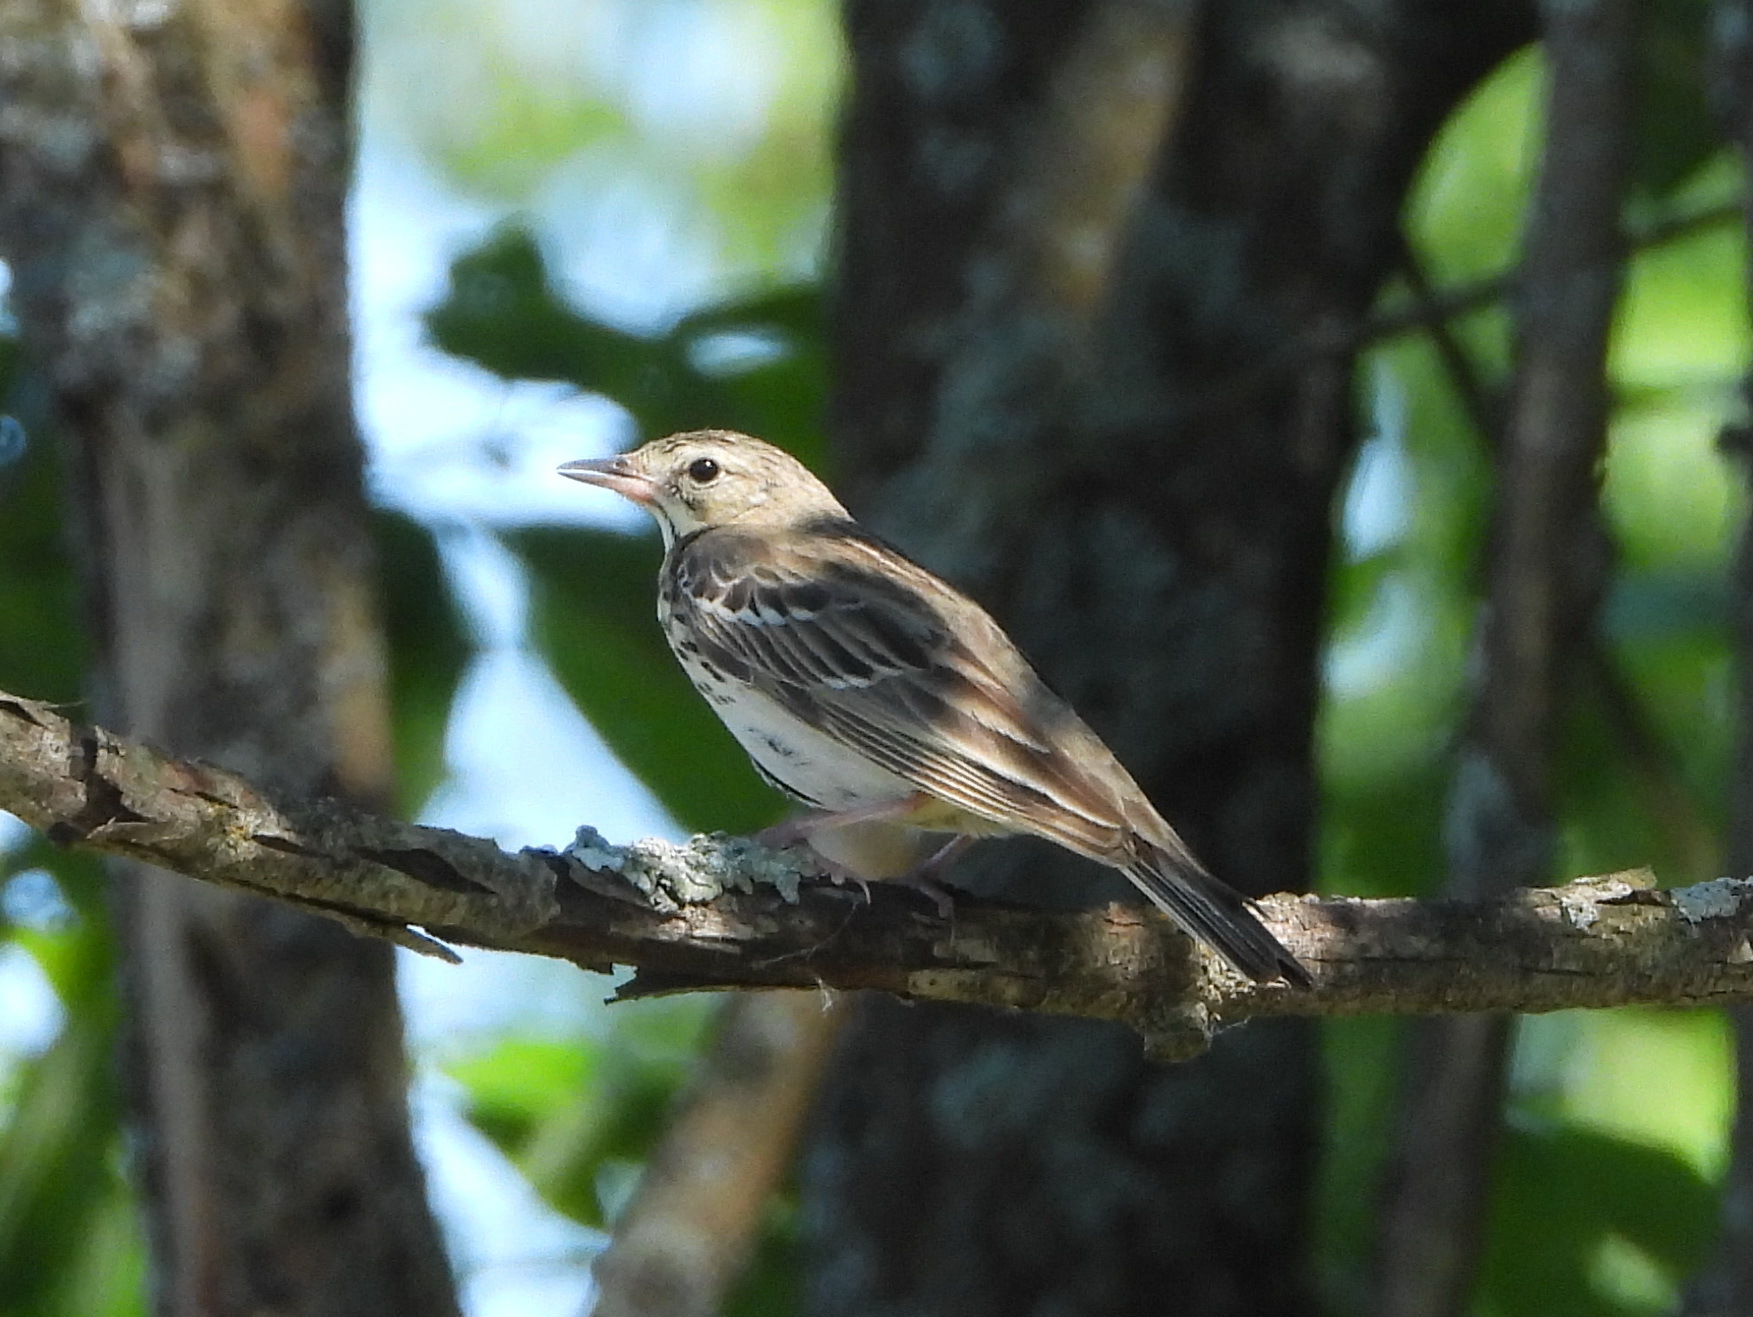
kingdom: Animalia
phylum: Chordata
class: Aves
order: Passeriformes
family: Motacillidae
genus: Anthus
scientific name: Anthus trivialis
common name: Tree pipit
